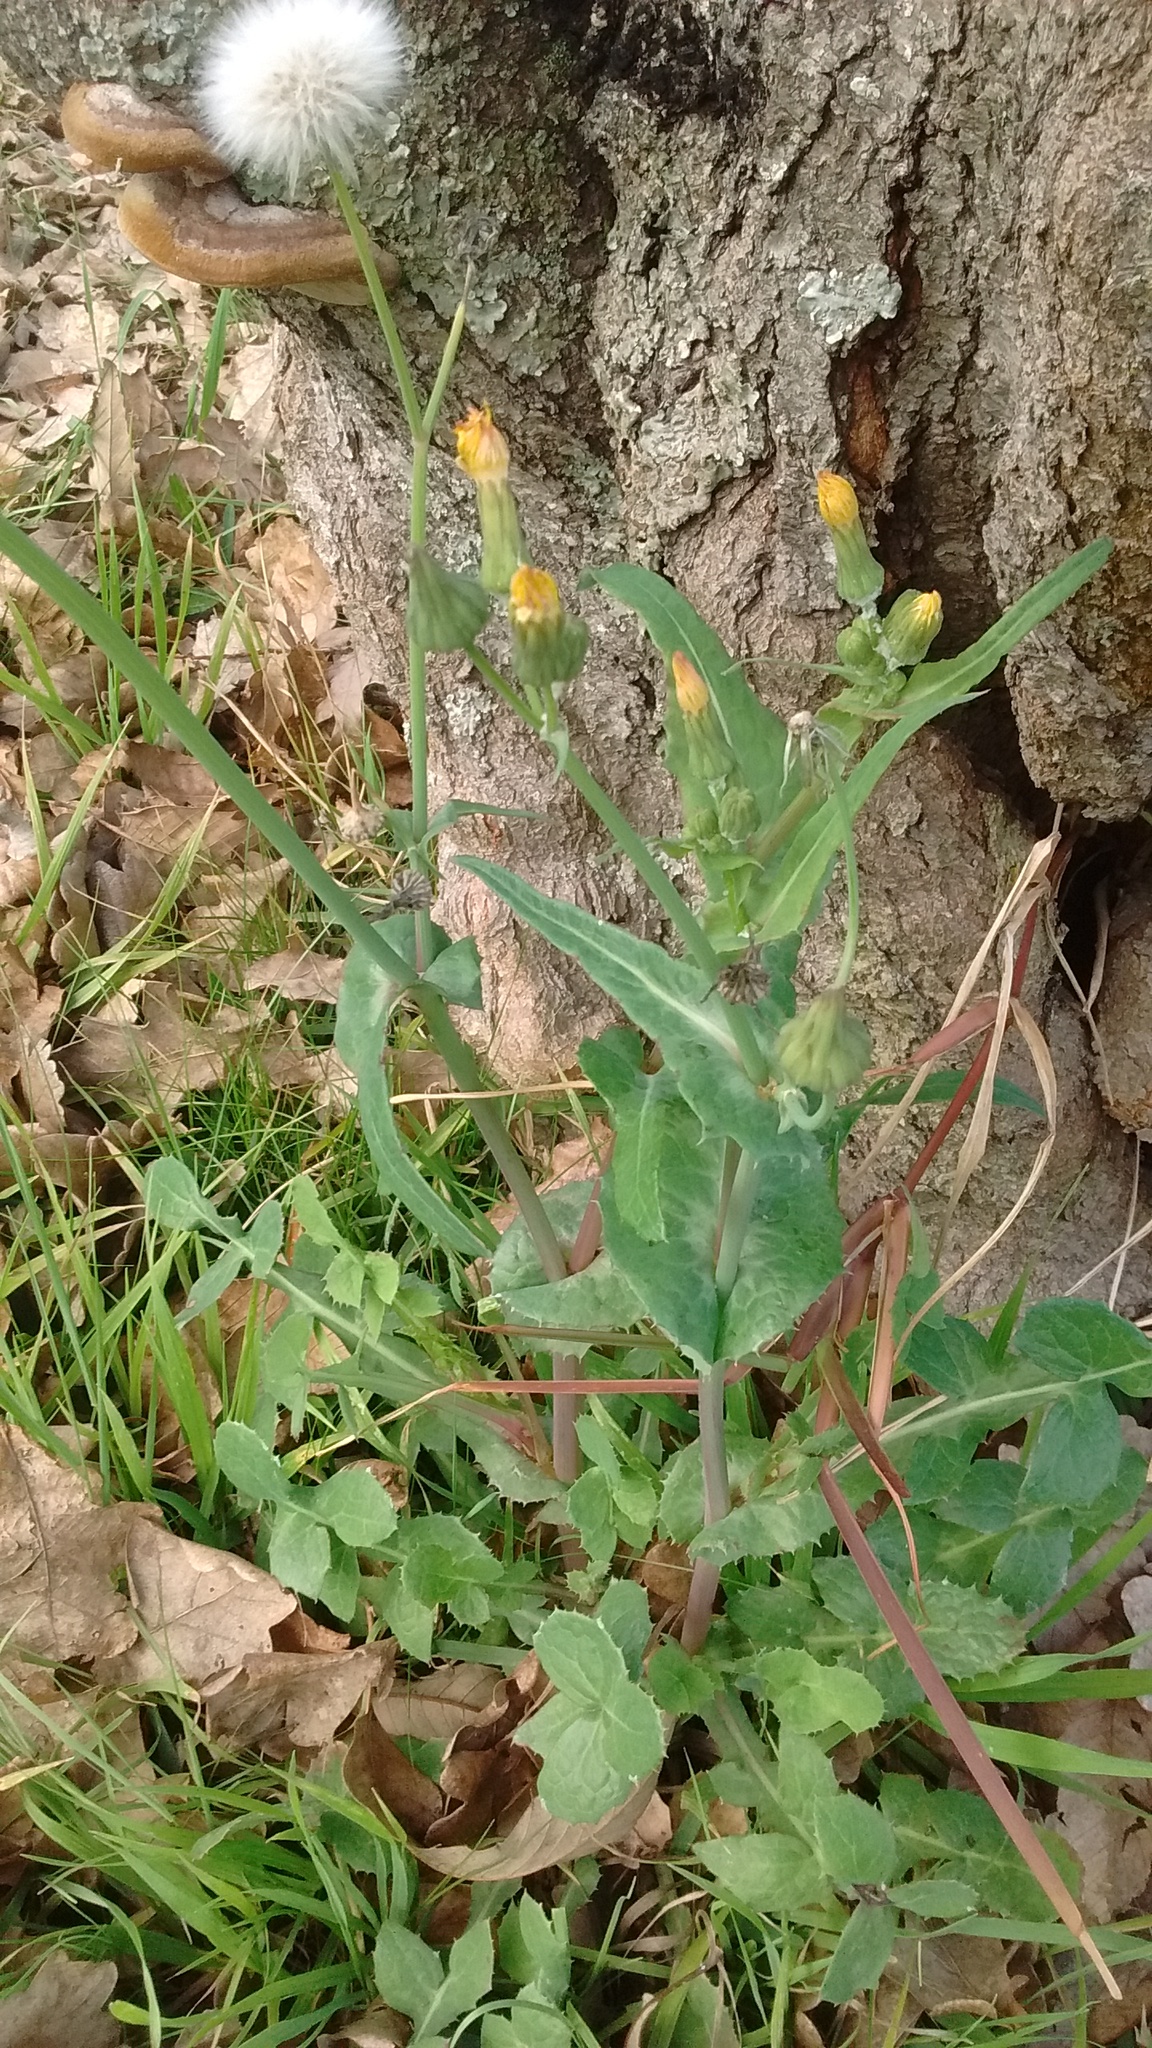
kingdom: Plantae
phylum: Tracheophyta
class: Magnoliopsida
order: Asterales
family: Asteraceae
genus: Sonchus
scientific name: Sonchus oleraceus
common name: Common sowthistle
